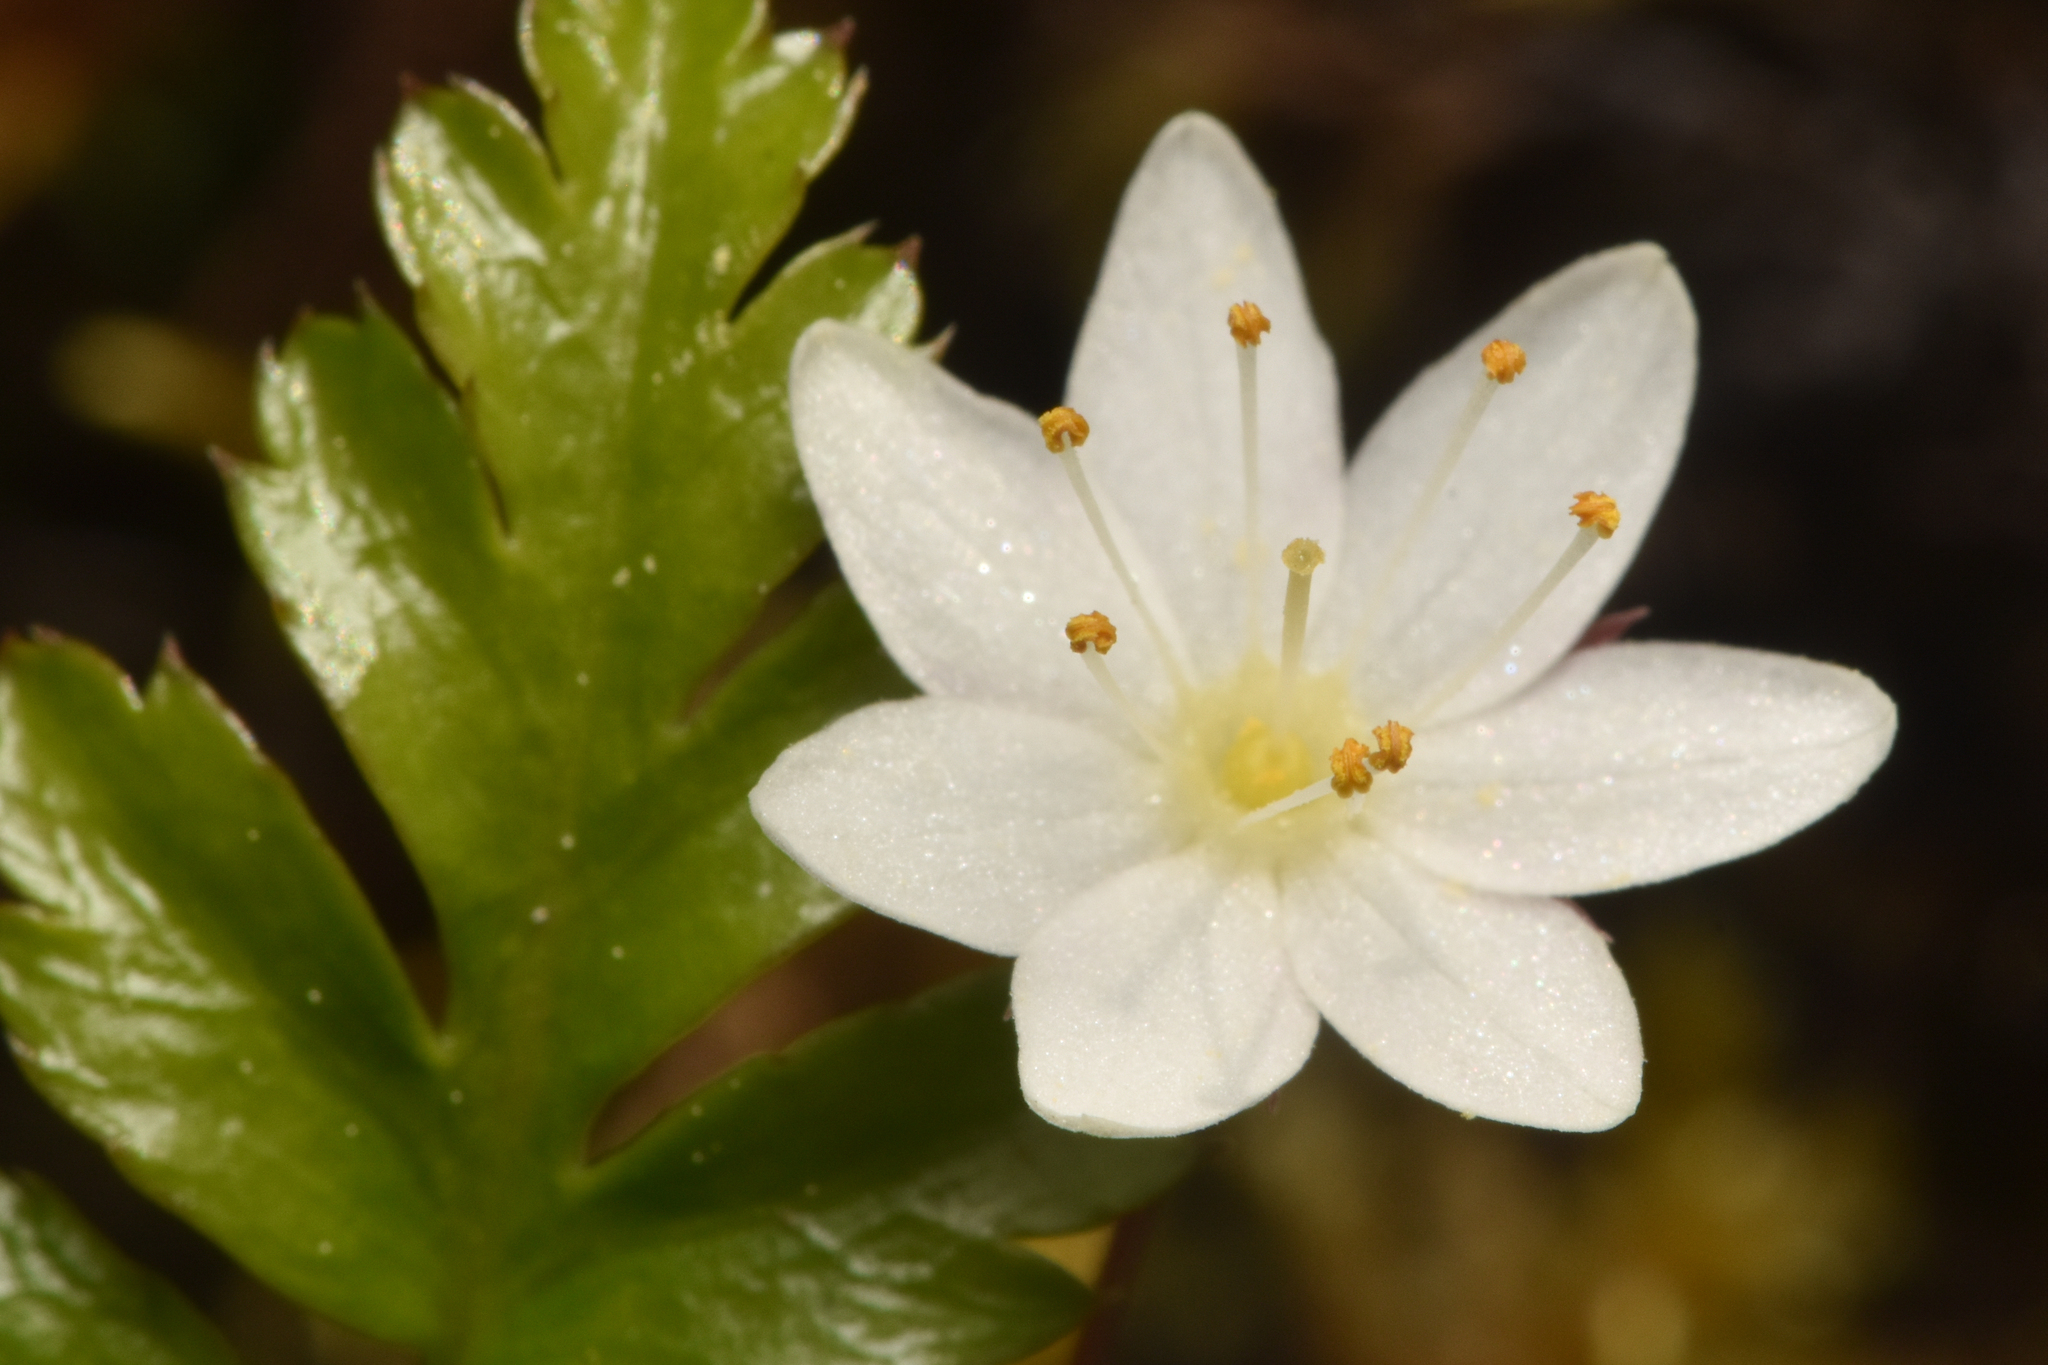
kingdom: Plantae
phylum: Tracheophyta
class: Magnoliopsida
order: Ericales
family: Primulaceae
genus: Lysimachia
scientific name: Lysimachia europaea
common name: Arctic starflower
